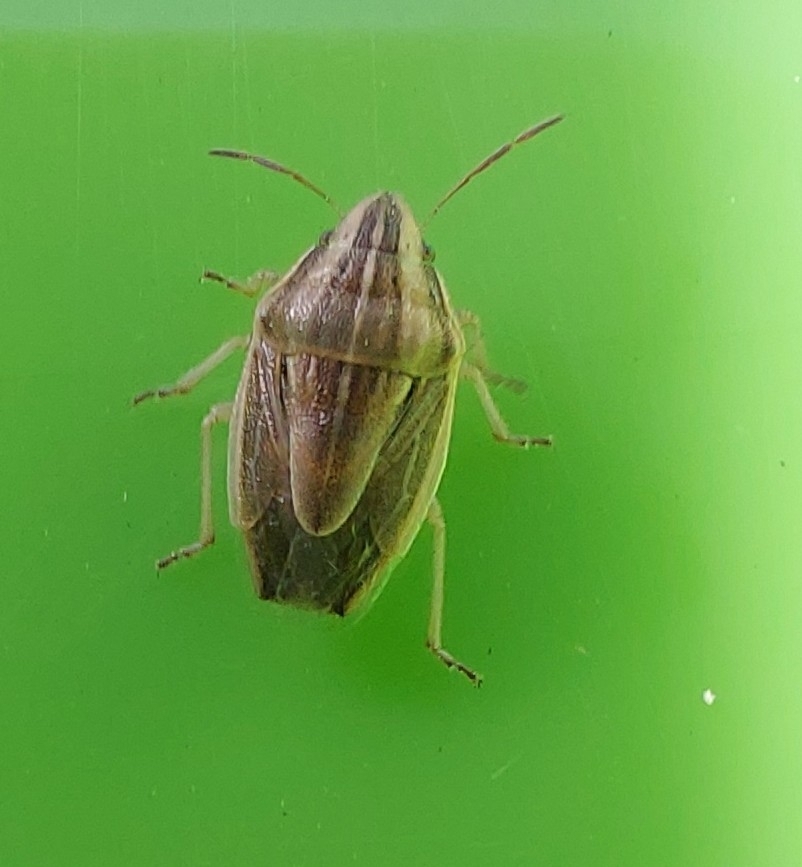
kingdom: Animalia
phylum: Arthropoda
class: Insecta
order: Hemiptera
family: Pentatomidae
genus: Aelia
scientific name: Aelia acuminata
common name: Bishop's mitre
